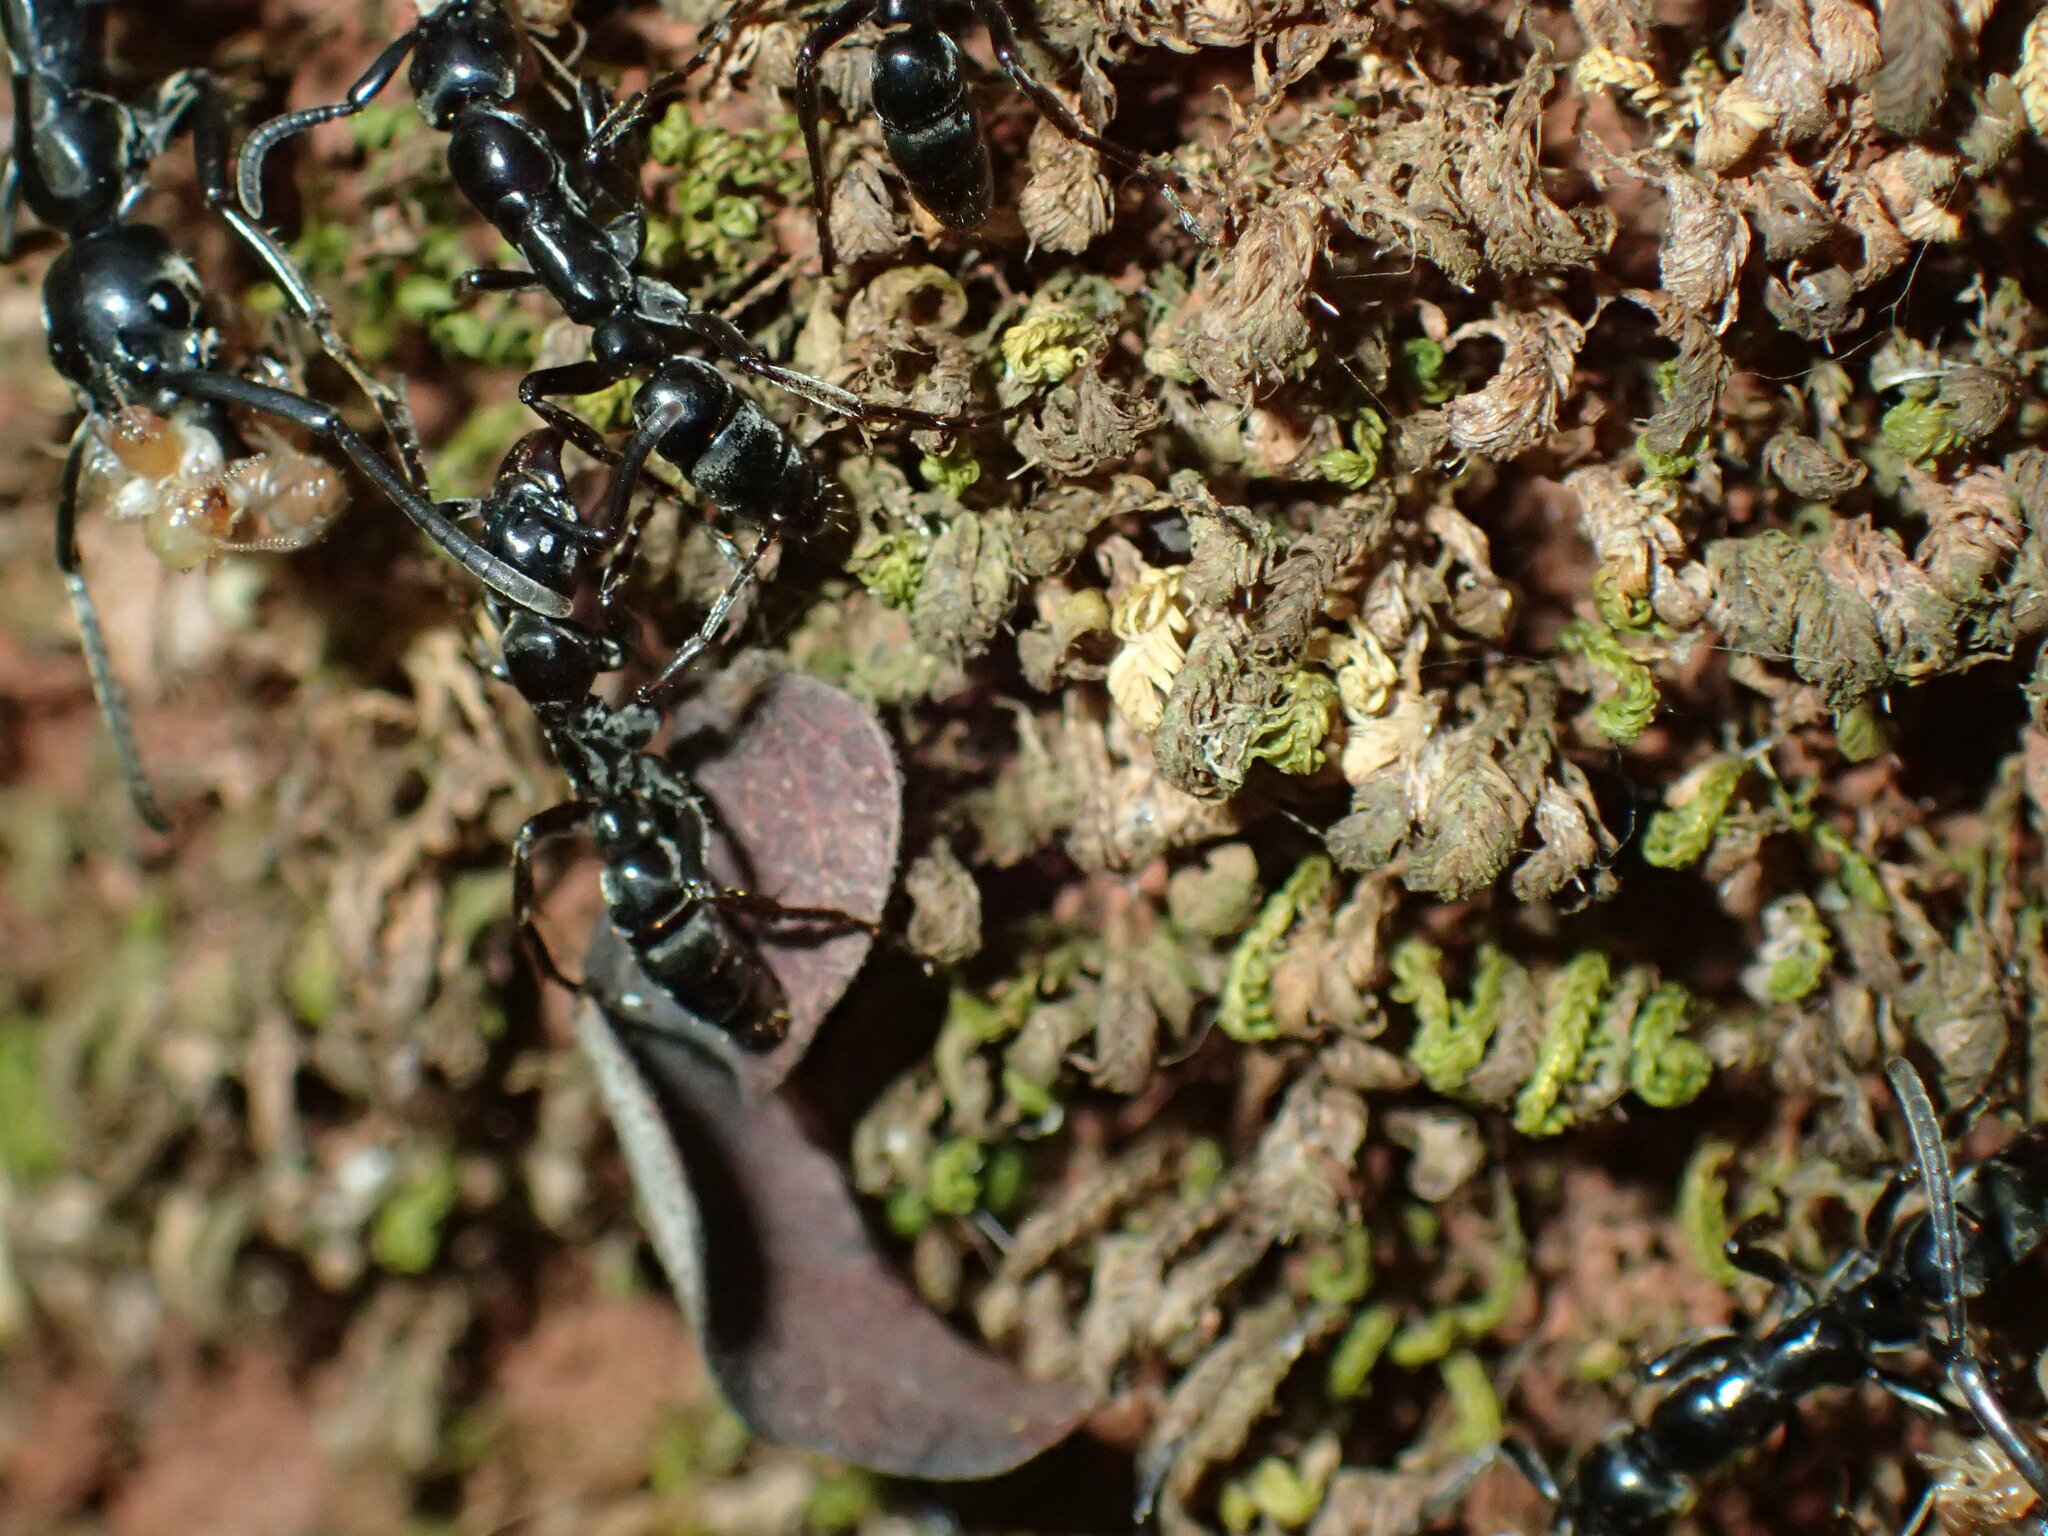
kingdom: Animalia
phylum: Arthropoda
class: Insecta
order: Hymenoptera
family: Formicidae
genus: Megaponera
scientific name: Megaponera analis
